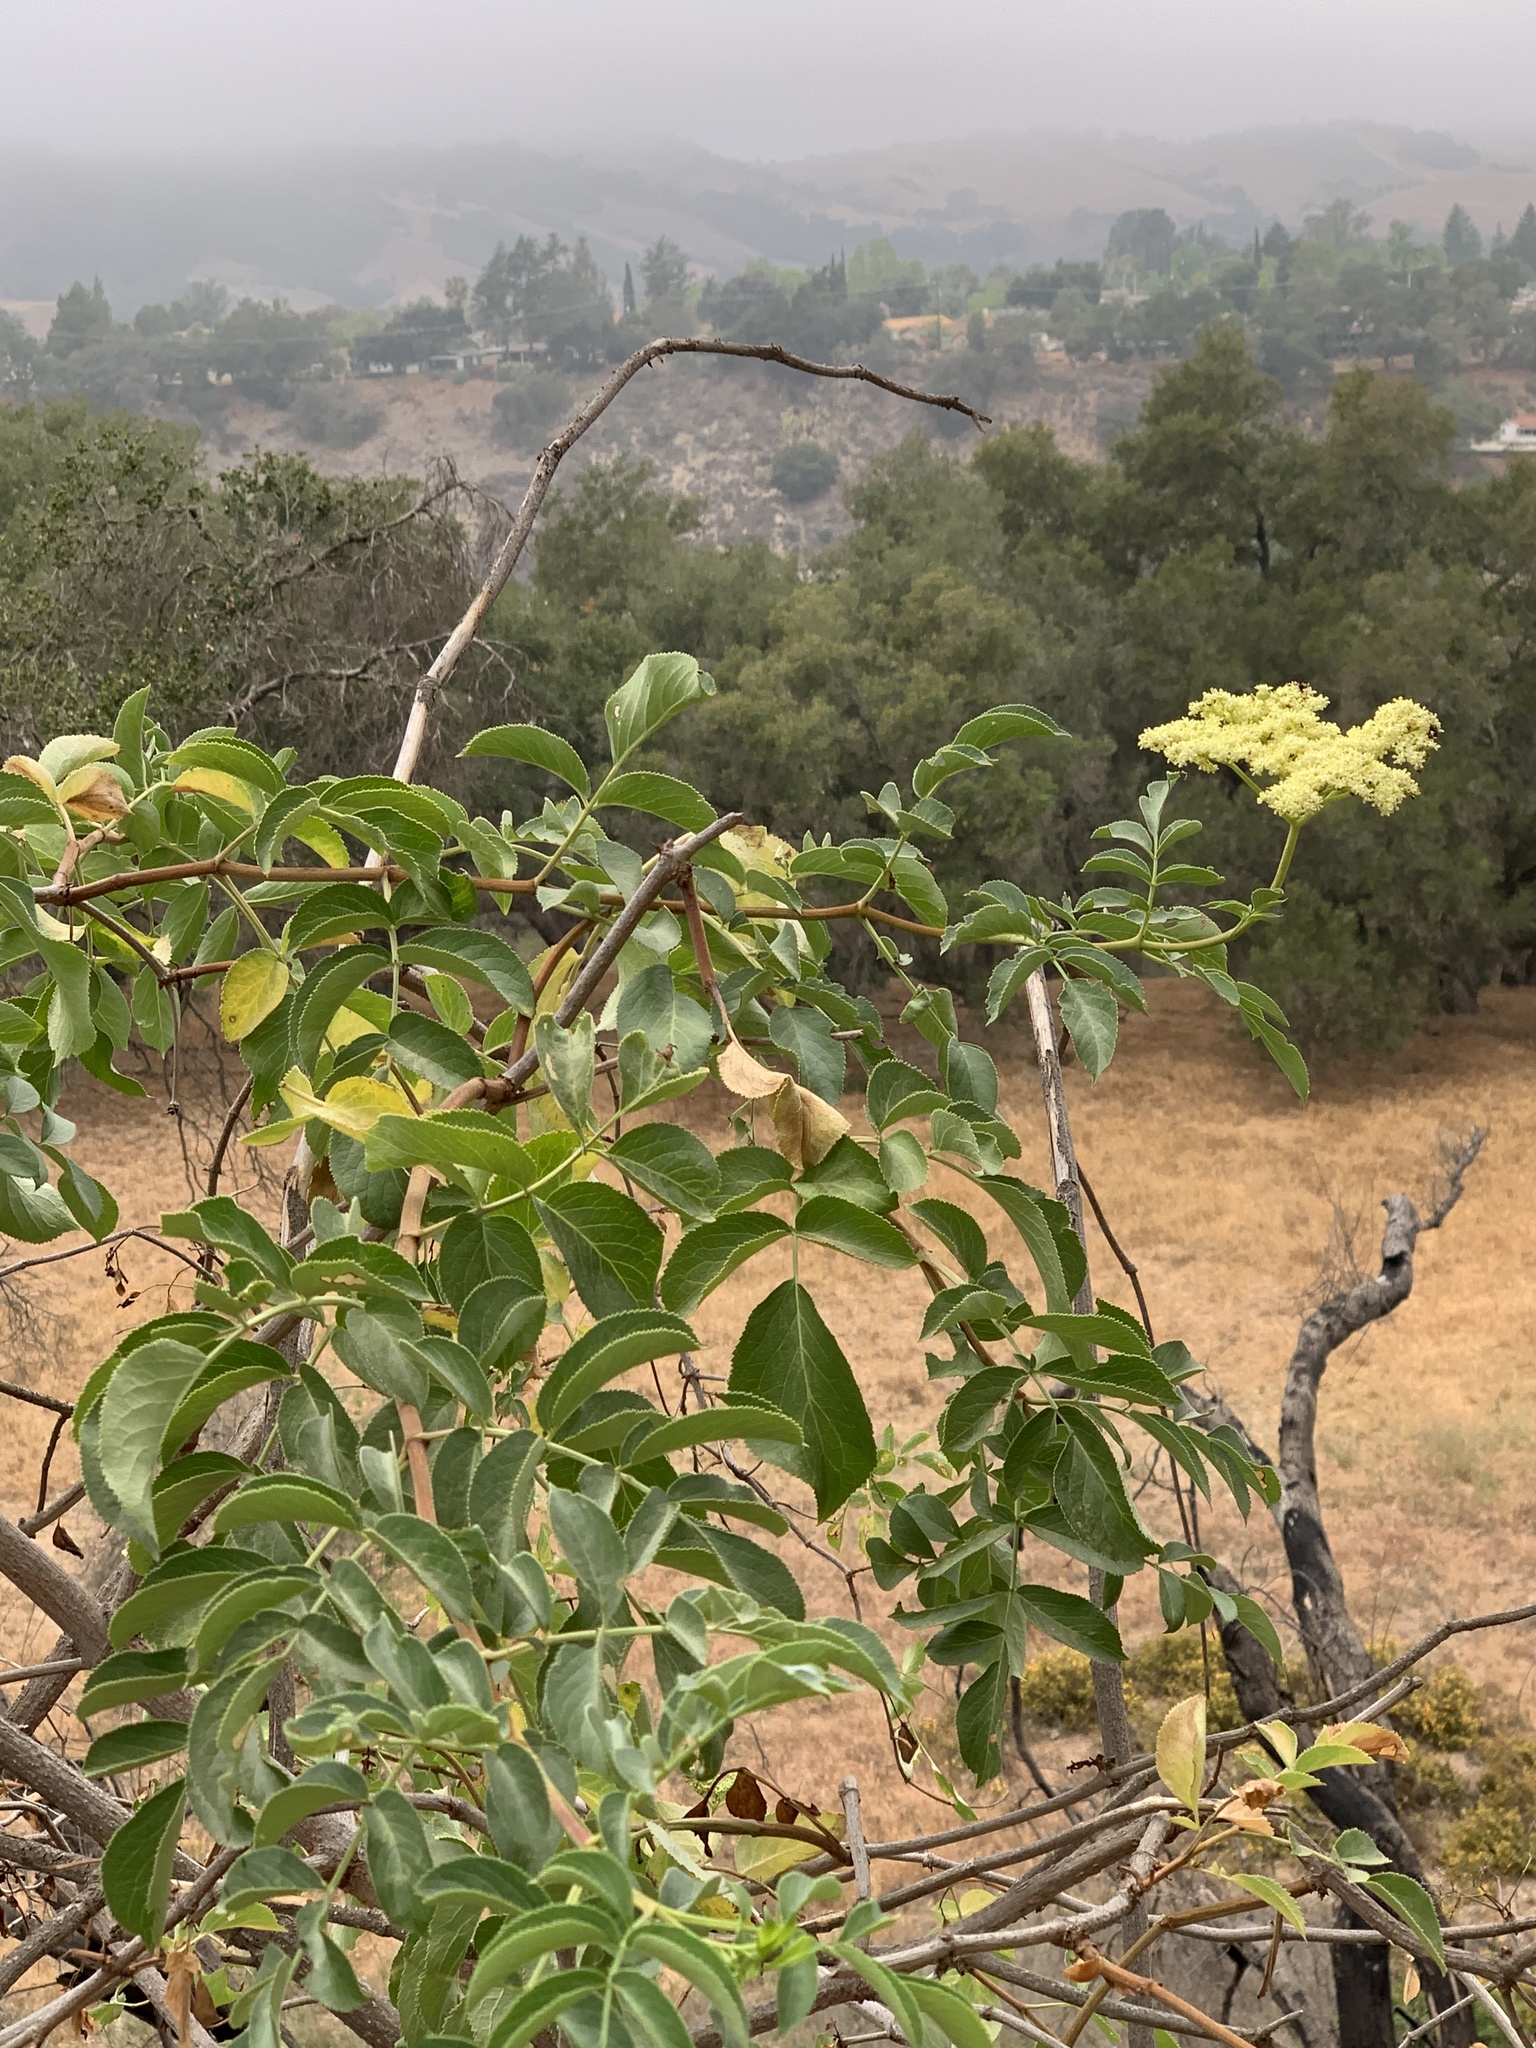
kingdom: Plantae
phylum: Tracheophyta
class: Magnoliopsida
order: Dipsacales
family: Viburnaceae
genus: Sambucus
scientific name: Sambucus cerulea
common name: Blue elder
